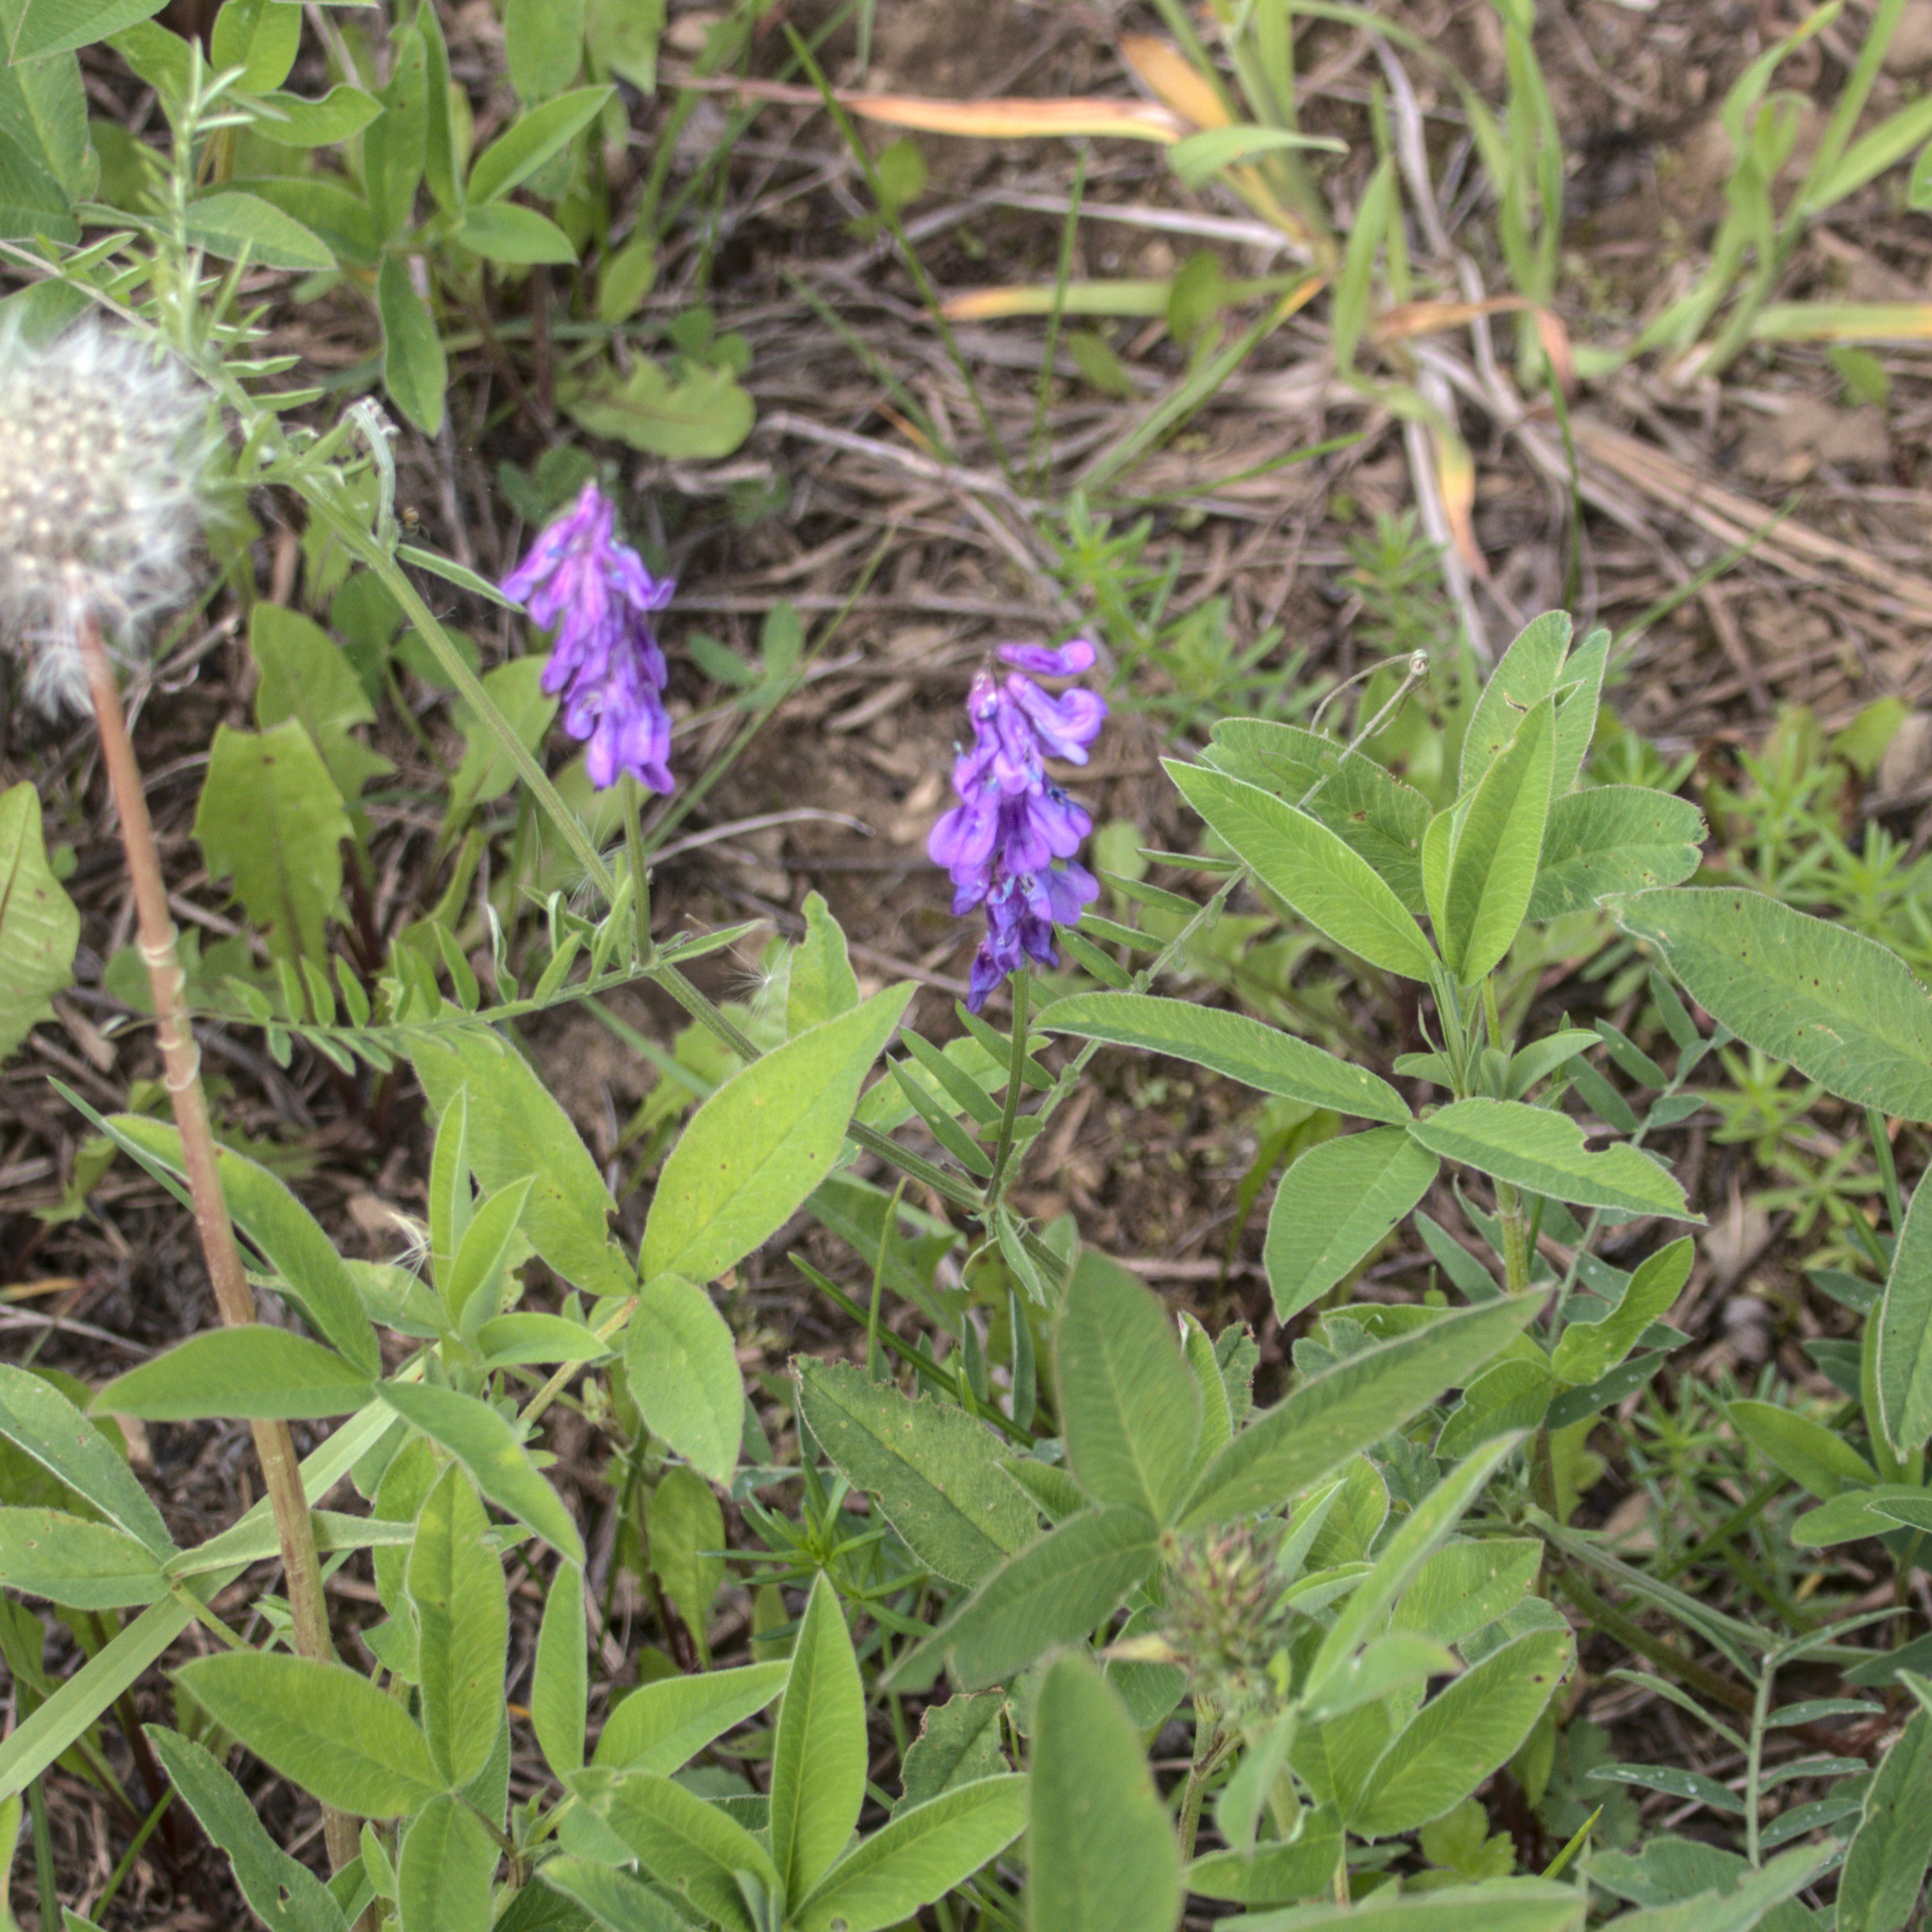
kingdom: Plantae
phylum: Tracheophyta
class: Magnoliopsida
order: Fabales
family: Fabaceae
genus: Vicia
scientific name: Vicia cracca
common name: Bird vetch
